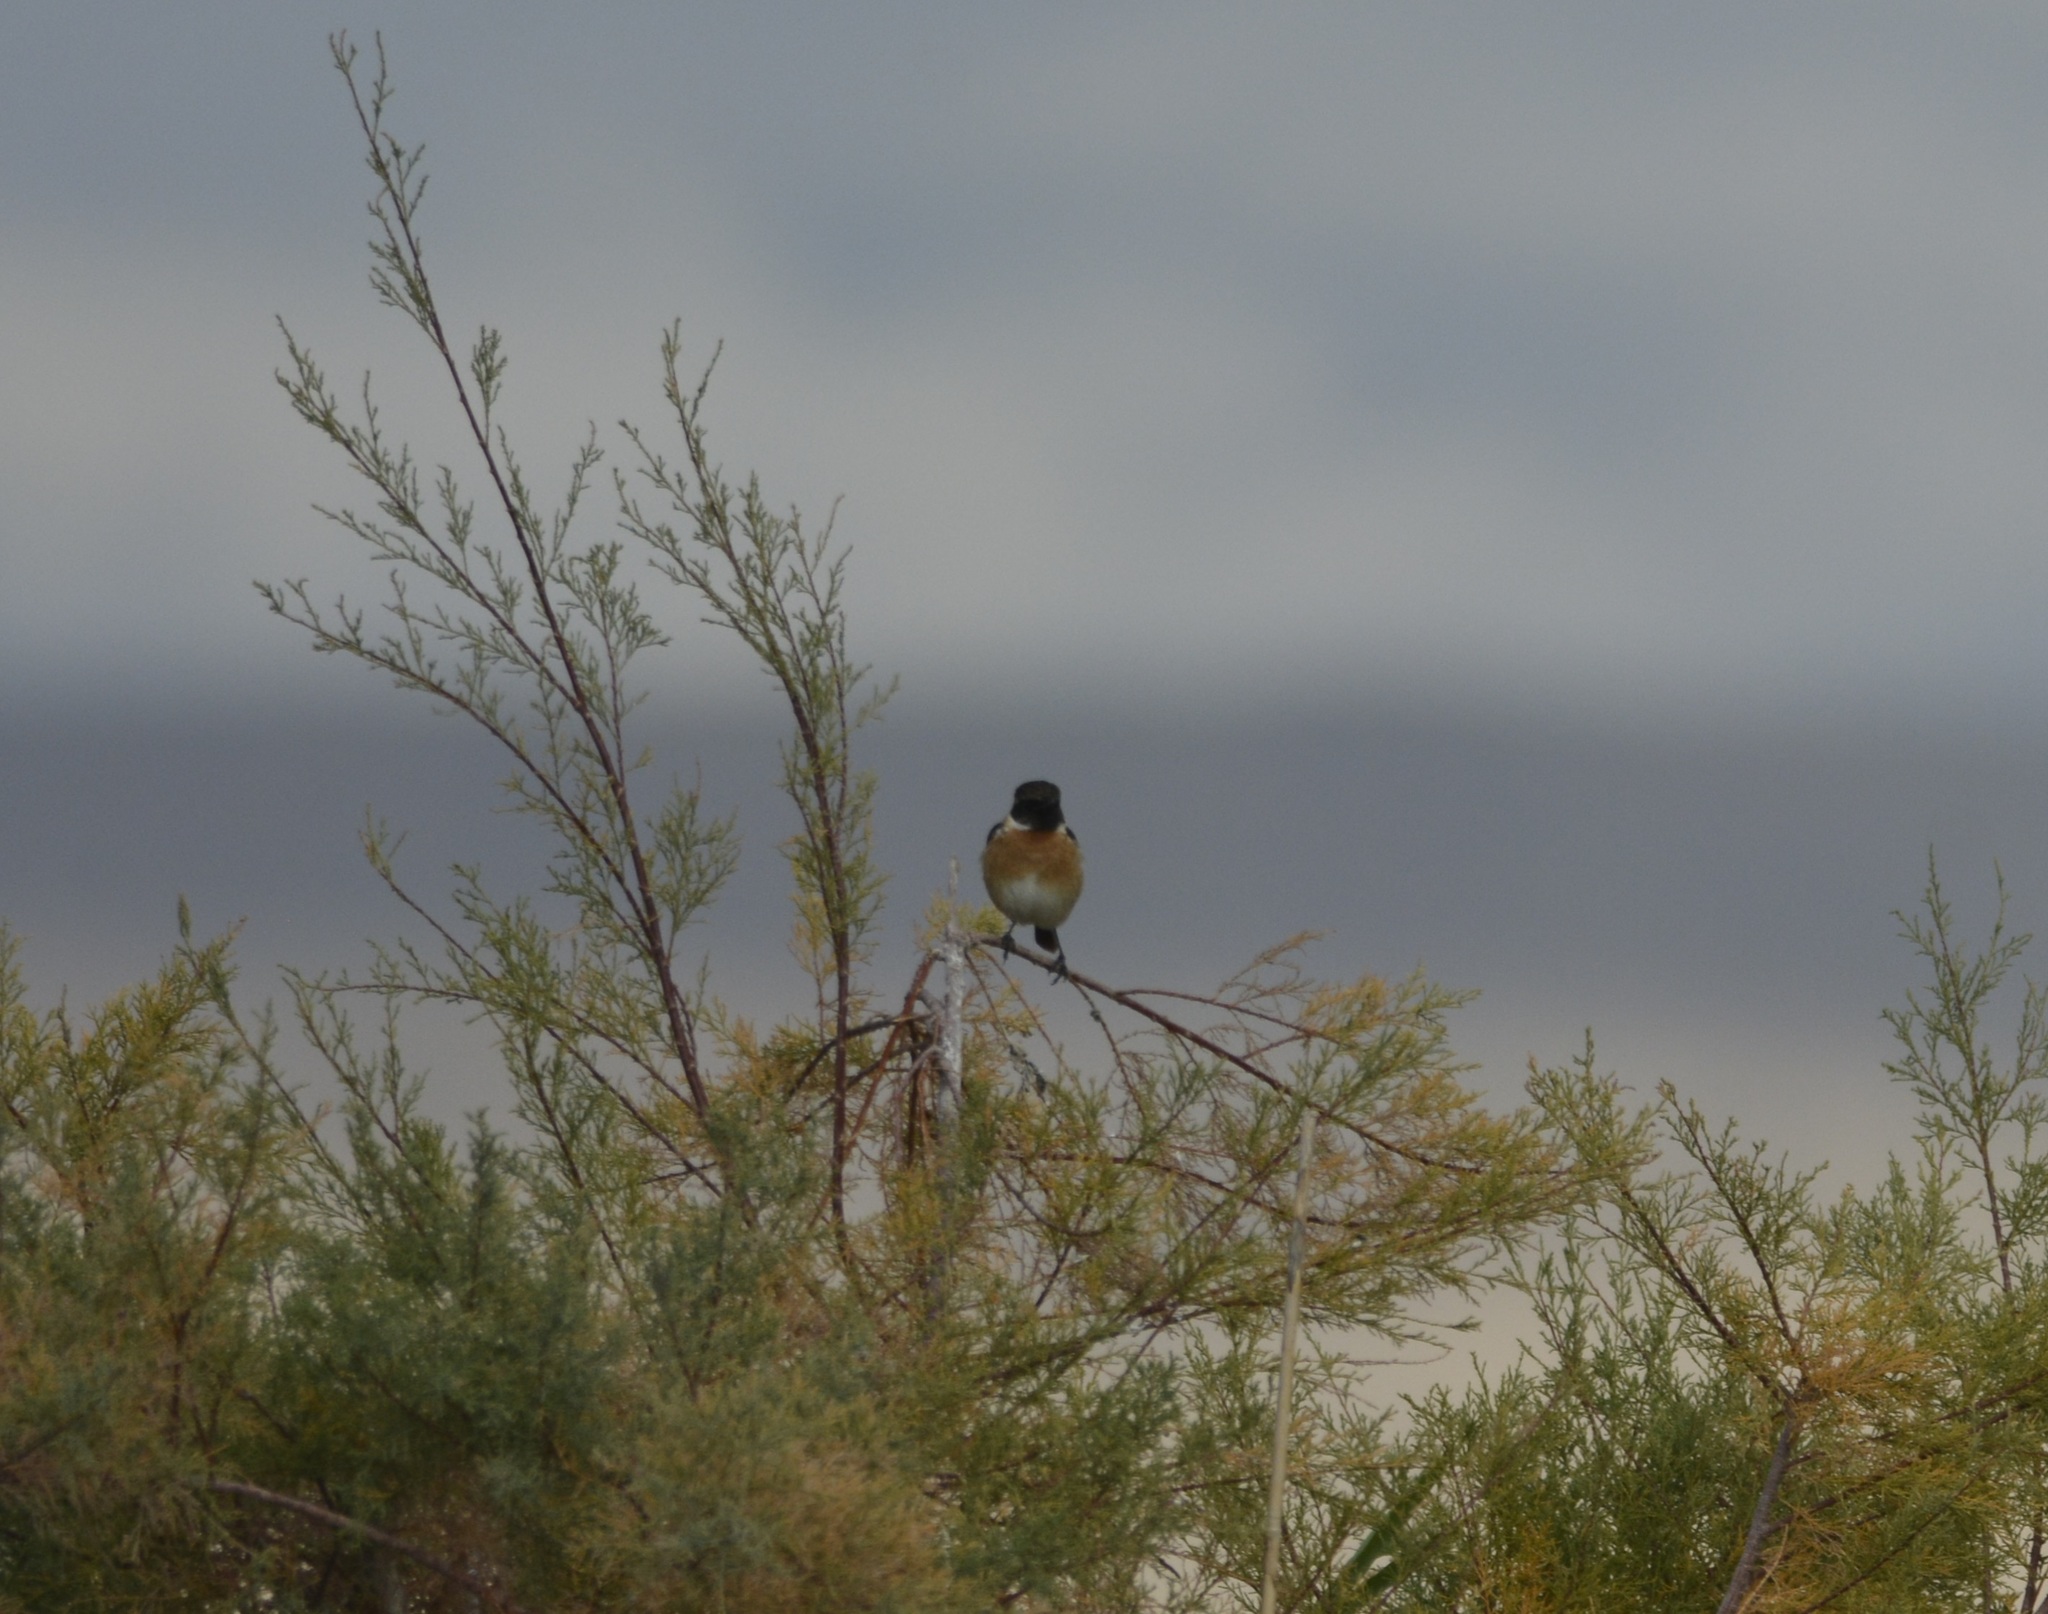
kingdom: Animalia
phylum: Chordata
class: Aves
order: Passeriformes
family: Muscicapidae
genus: Saxicola
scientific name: Saxicola rubicola
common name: European stonechat
